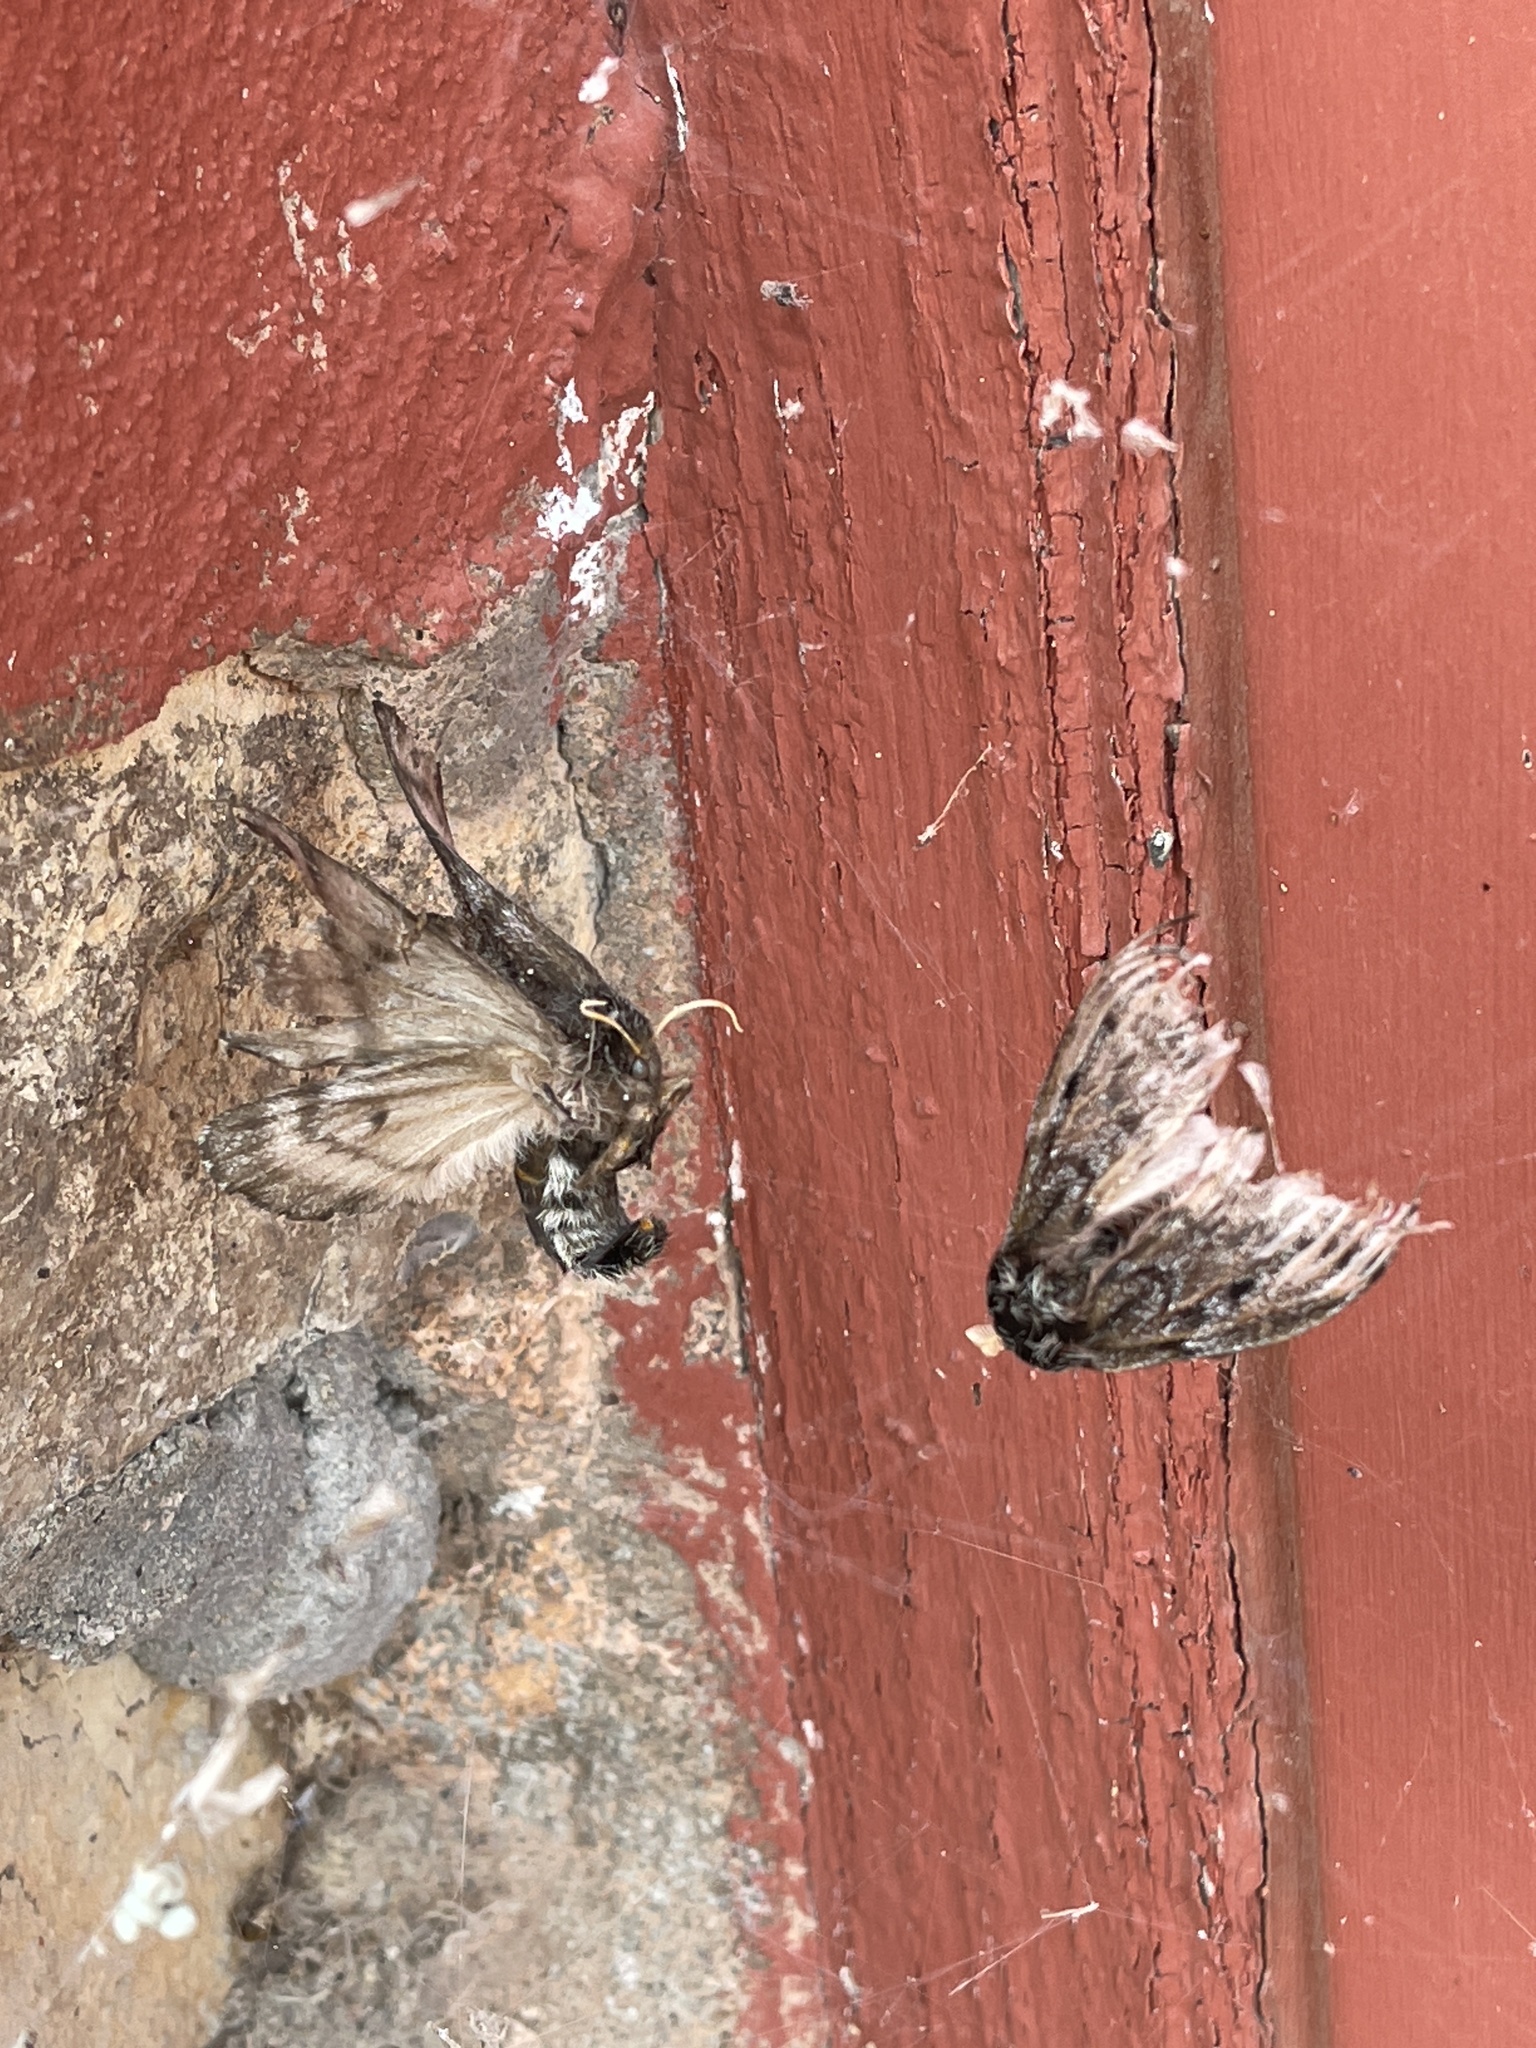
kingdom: Animalia
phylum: Arthropoda
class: Insecta
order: Lepidoptera
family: Saturniidae
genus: Coloradia
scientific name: Coloradia pandora
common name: Pandora pinemoth
